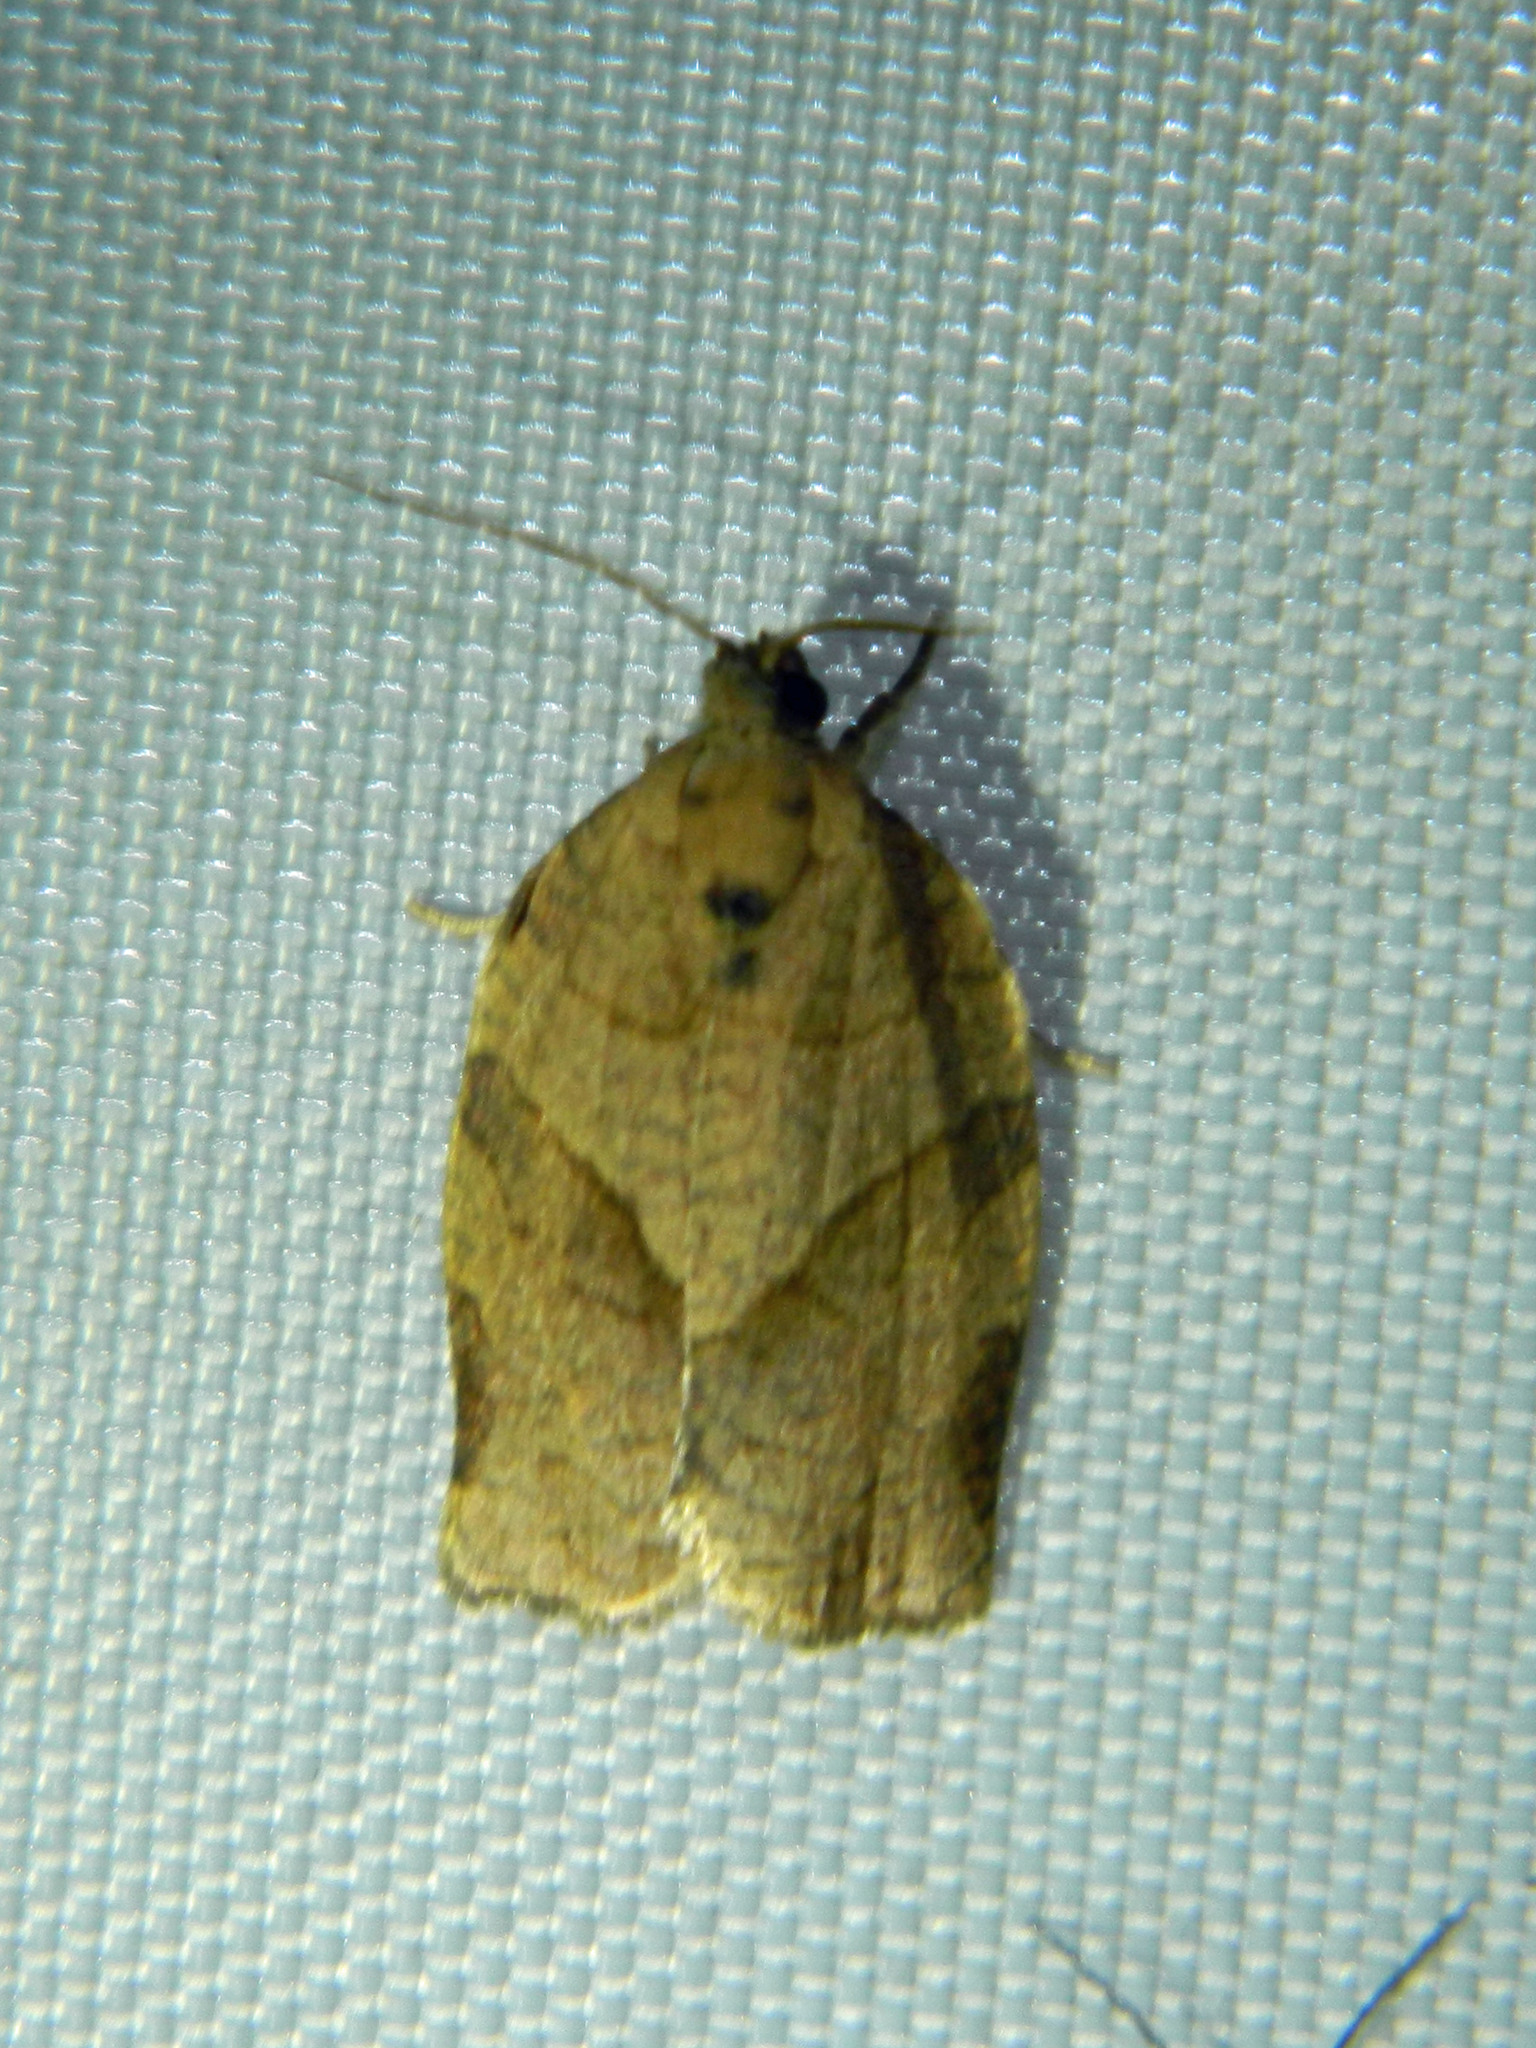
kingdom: Animalia
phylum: Arthropoda
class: Insecta
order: Lepidoptera
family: Tortricidae
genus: Choristoneura
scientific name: Choristoneura rosaceana
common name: Oblique-banded leafroller moth
